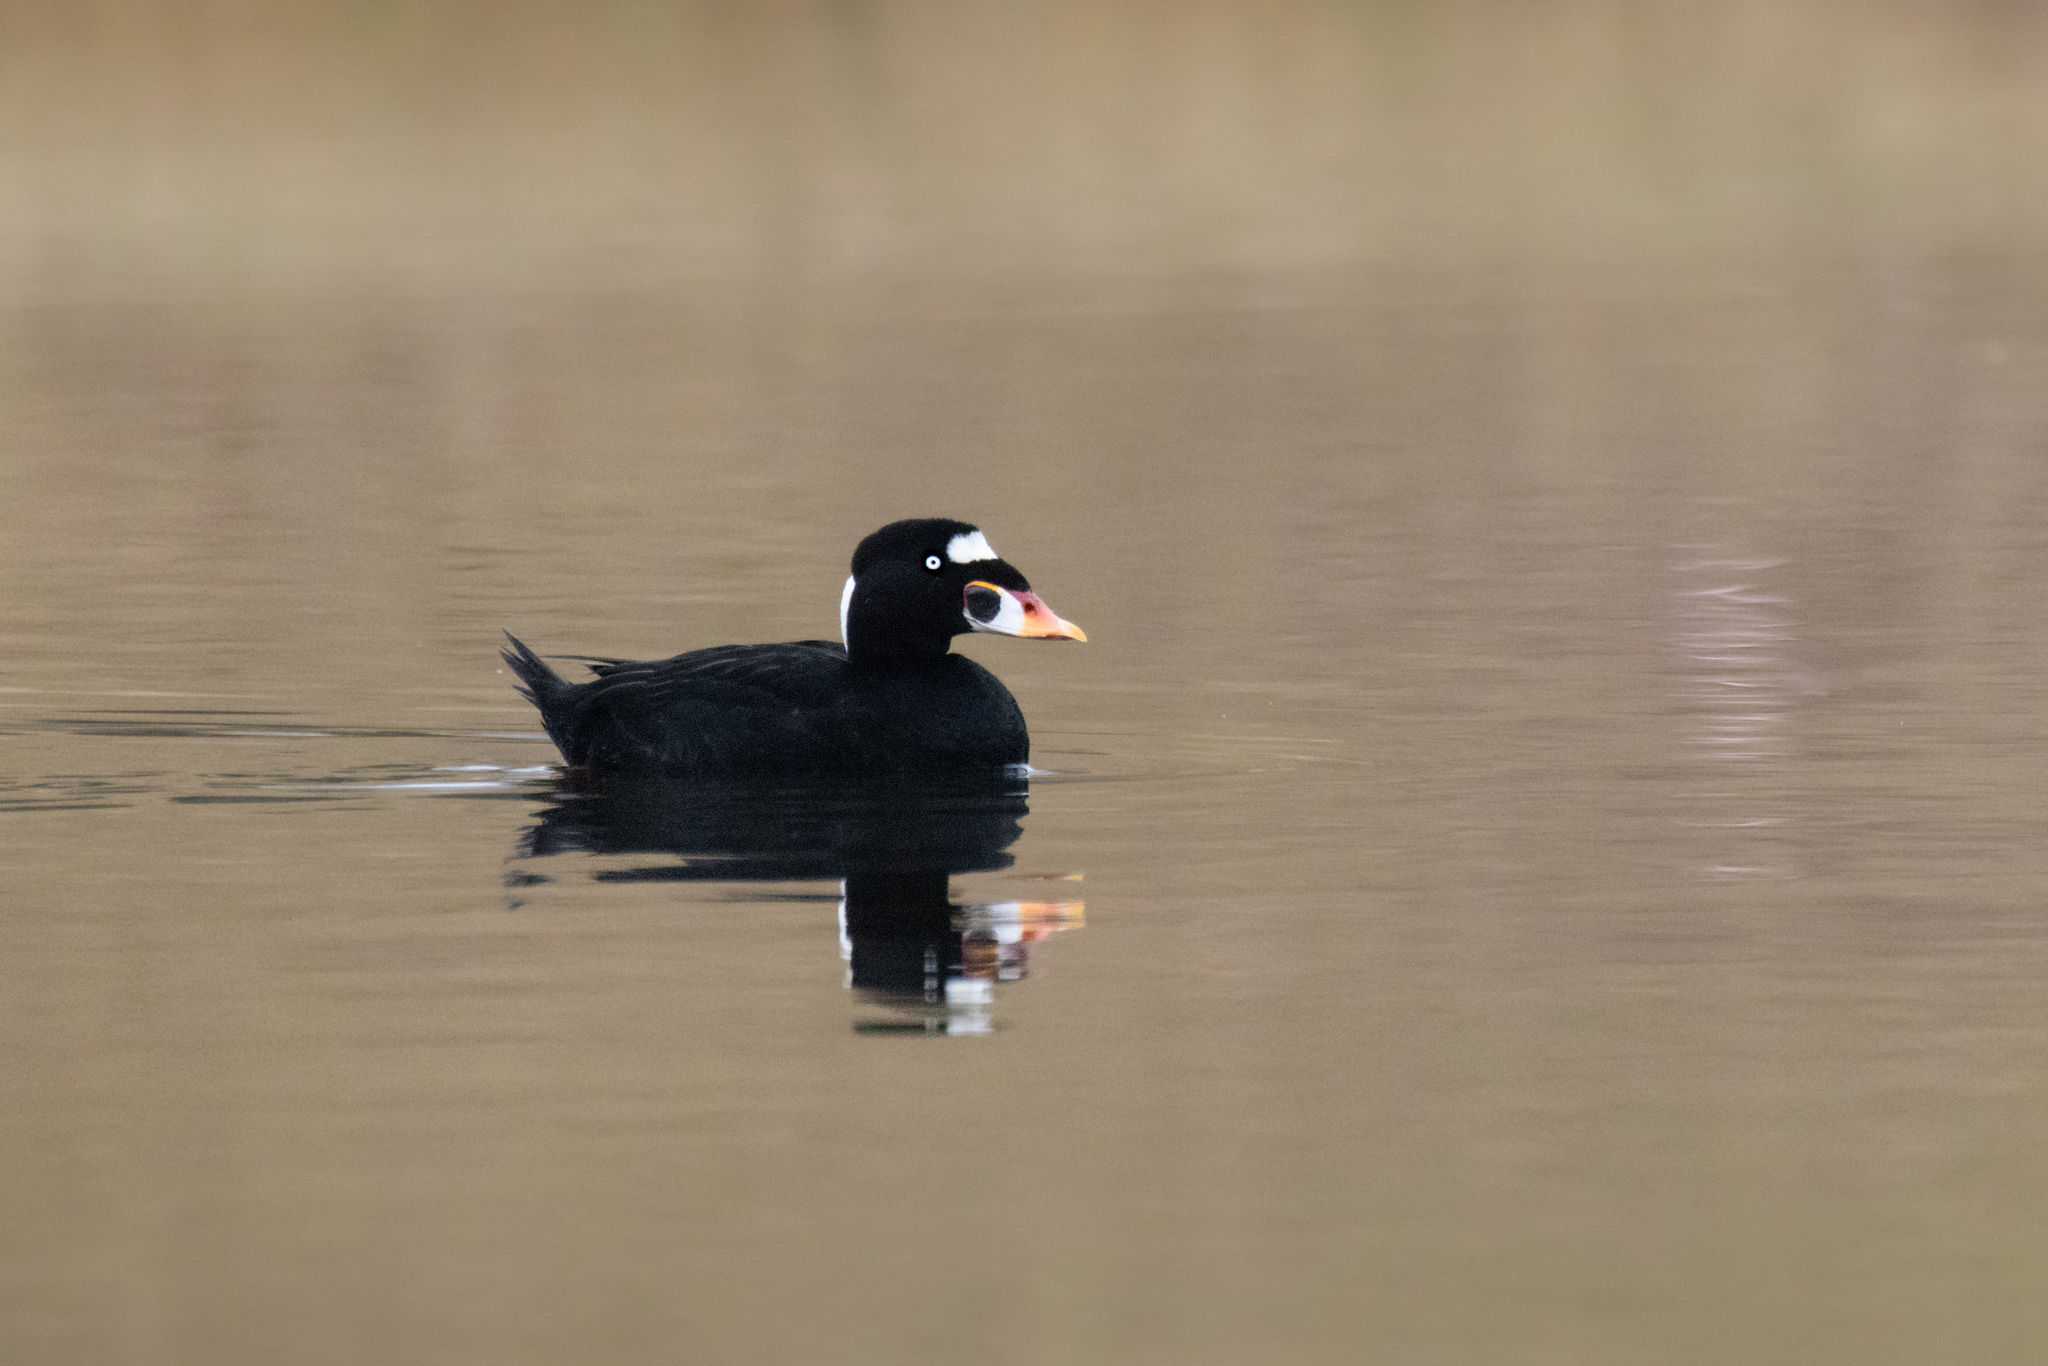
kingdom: Animalia
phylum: Chordata
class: Aves
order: Anseriformes
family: Anatidae
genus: Melanitta
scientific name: Melanitta perspicillata
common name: Surf scoter
